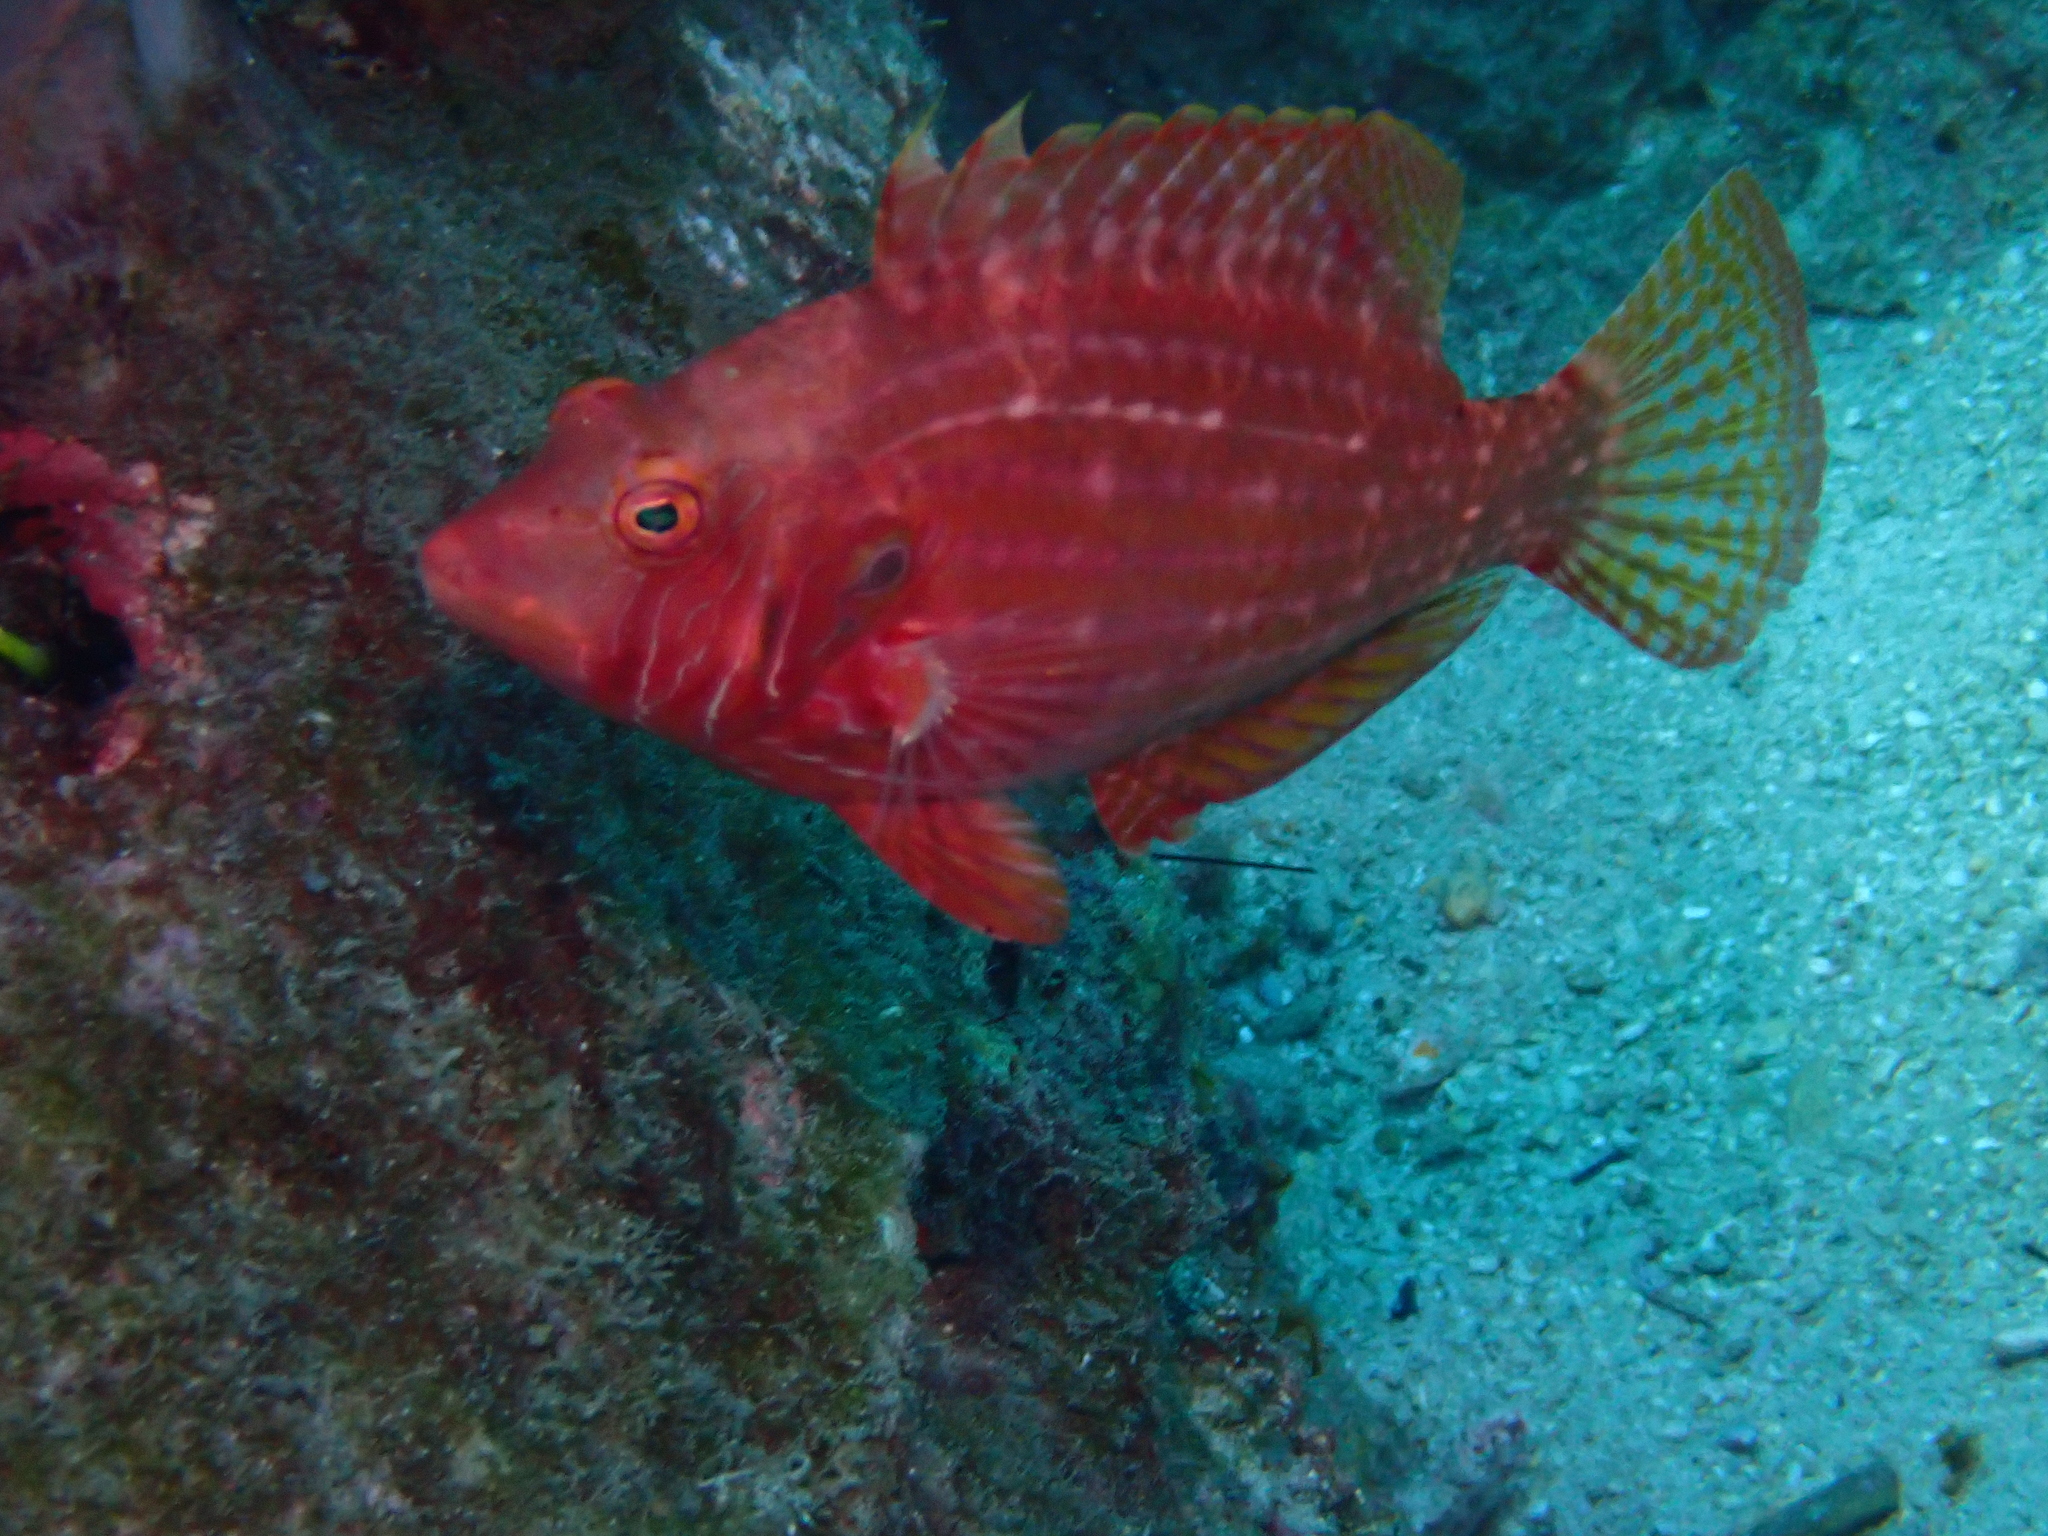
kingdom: Animalia
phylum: Chordata
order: Perciformes
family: Labridae
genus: Pteragogus
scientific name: Pteragogus enneacanthus
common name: Cockerel wrasse
